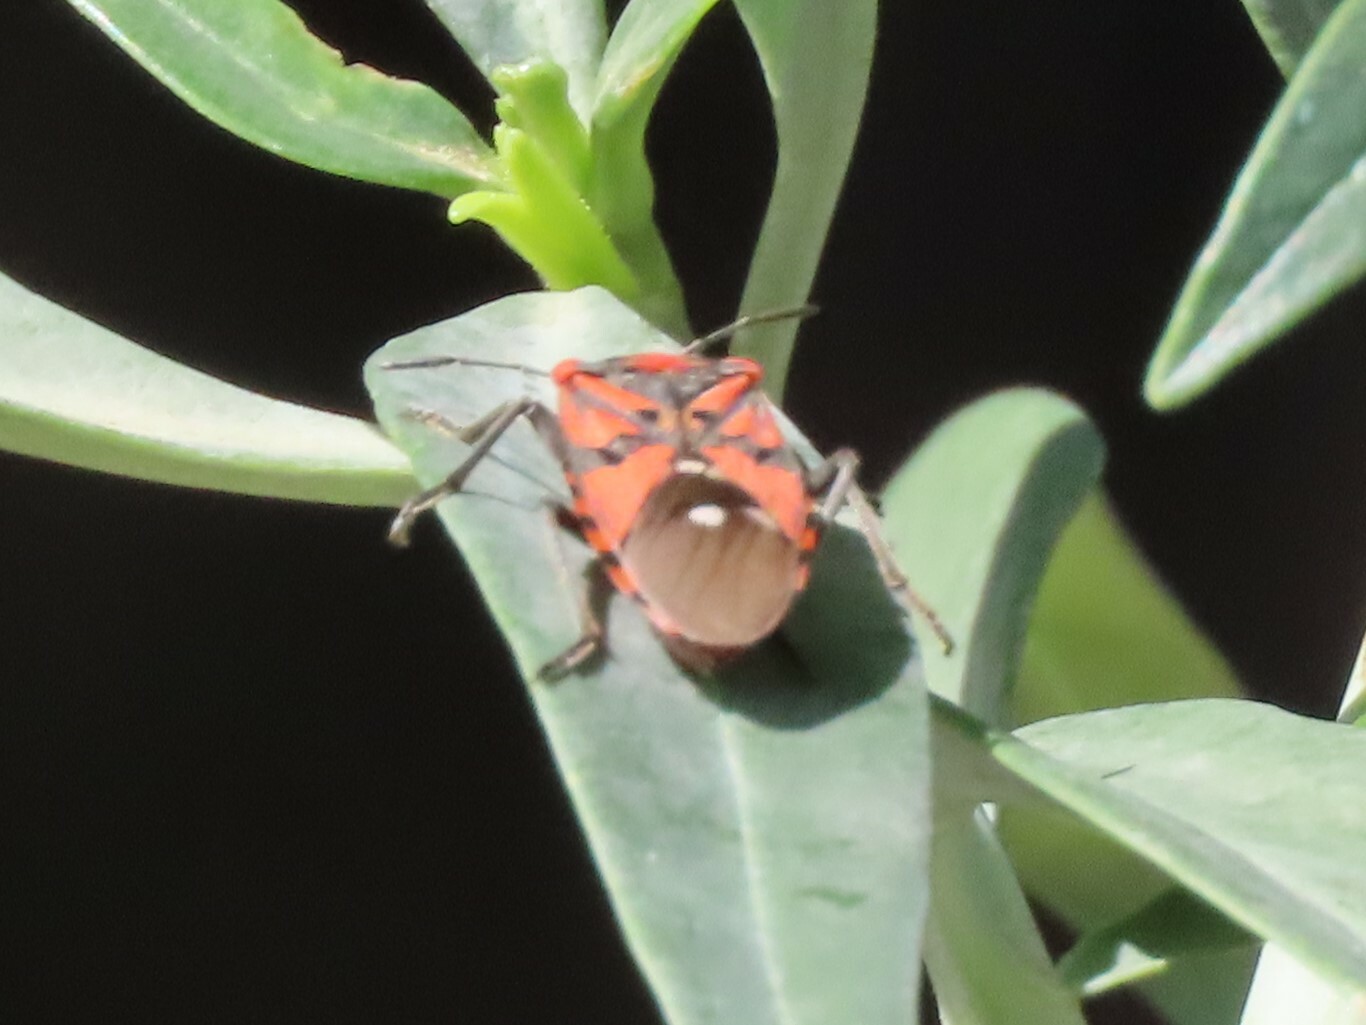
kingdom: Animalia
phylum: Arthropoda
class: Insecta
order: Hemiptera
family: Lygaeidae
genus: Spilostethus
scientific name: Spilostethus pandurus
